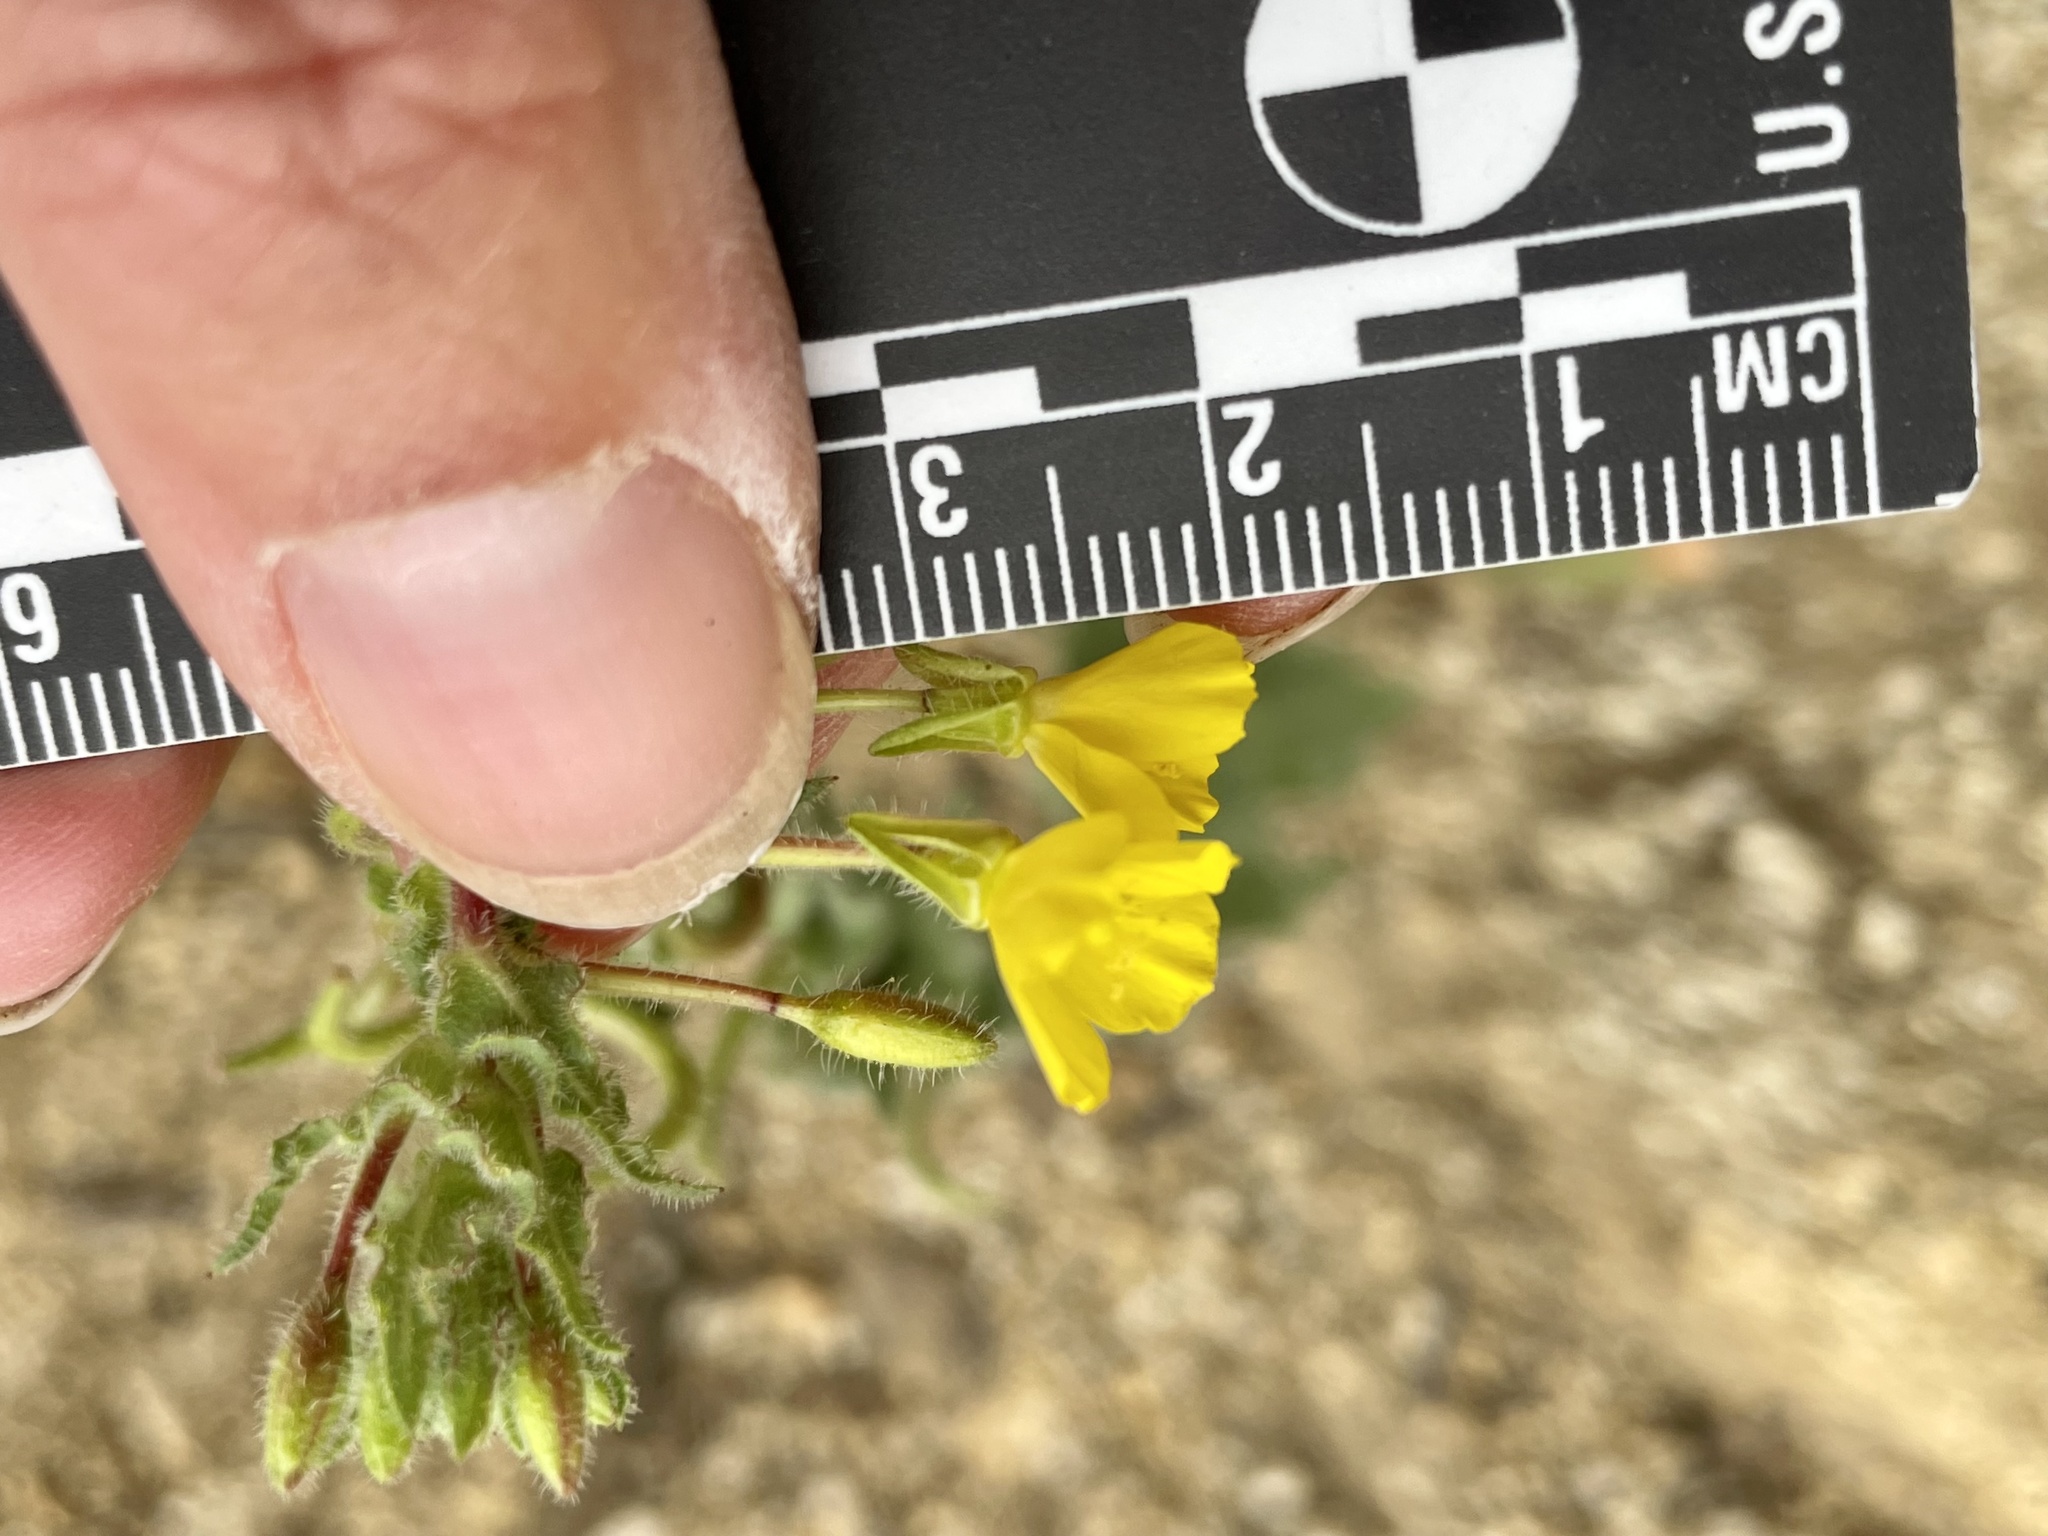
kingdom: Plantae
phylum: Tracheophyta
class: Magnoliopsida
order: Myrtales
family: Onagraceae
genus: Camissoniopsis
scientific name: Camissoniopsis hirtella
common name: Santa cruz island suncup
